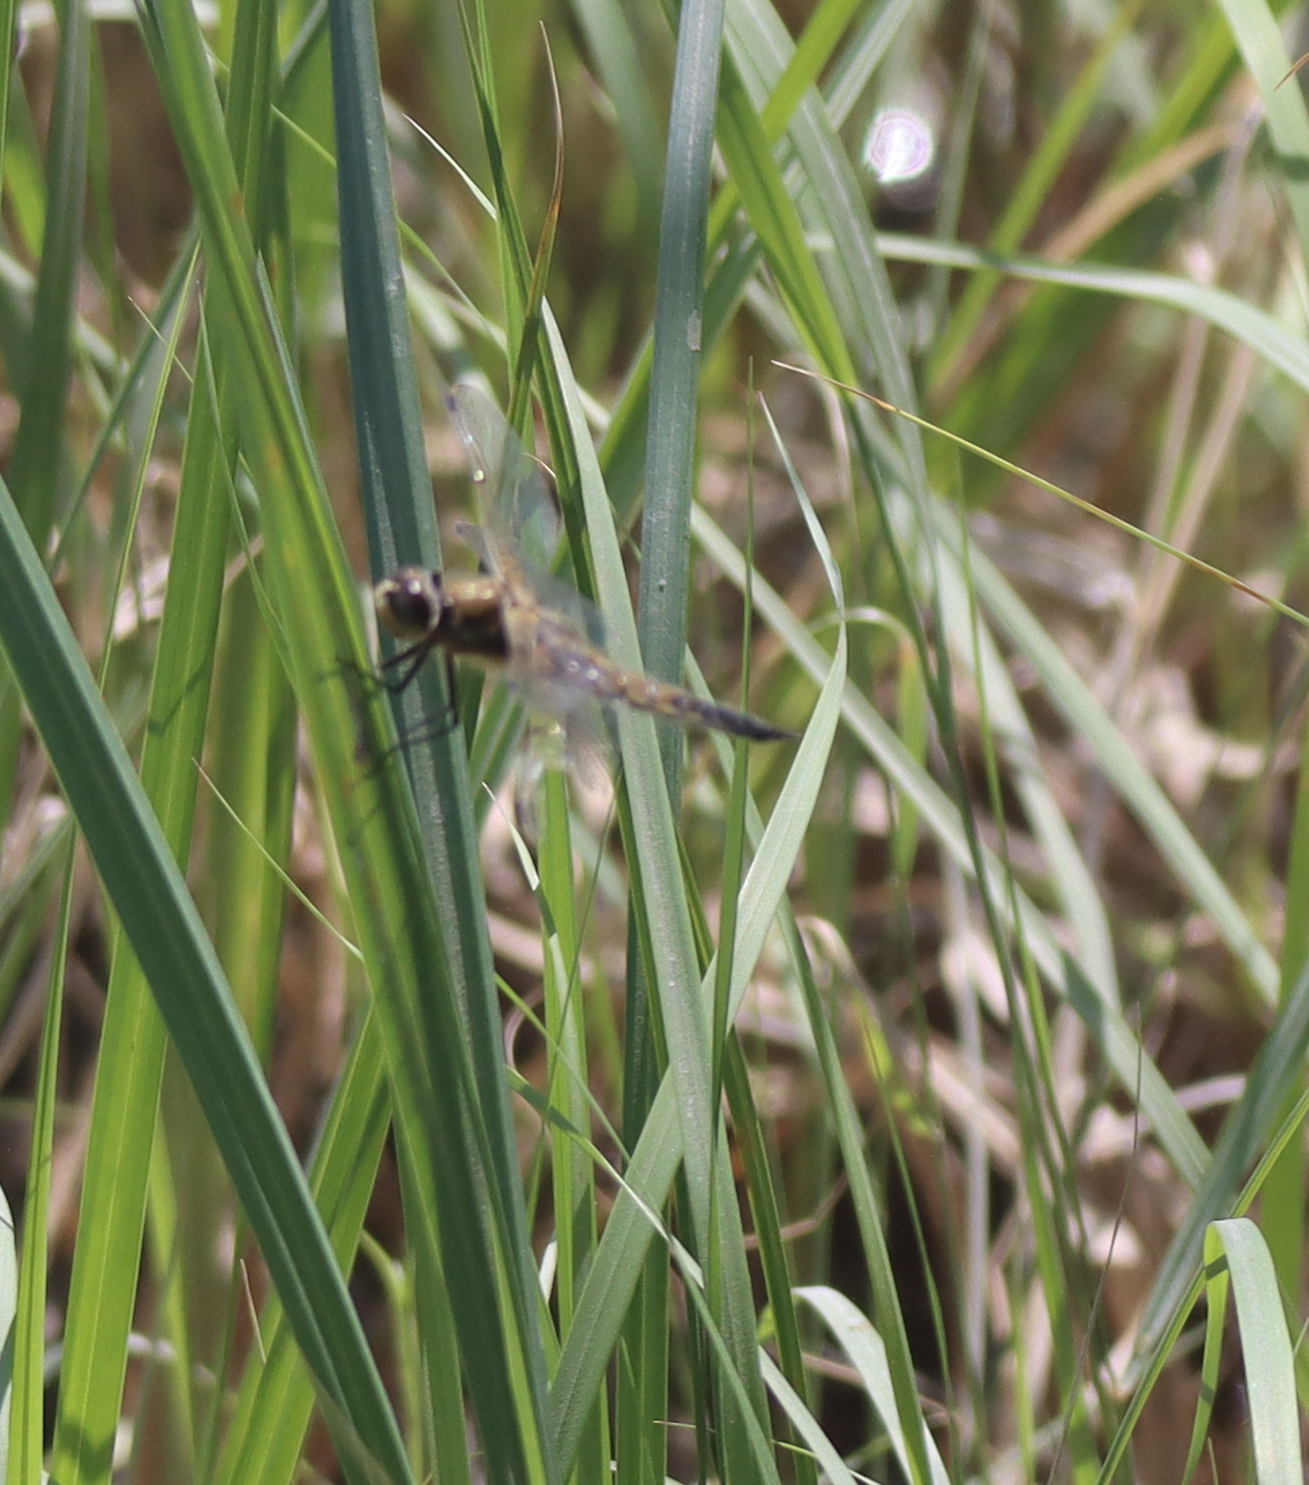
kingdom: Animalia
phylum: Arthropoda
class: Insecta
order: Odonata
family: Libellulidae
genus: Libellula
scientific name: Libellula quadrimaculata
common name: Four-spotted chaser
